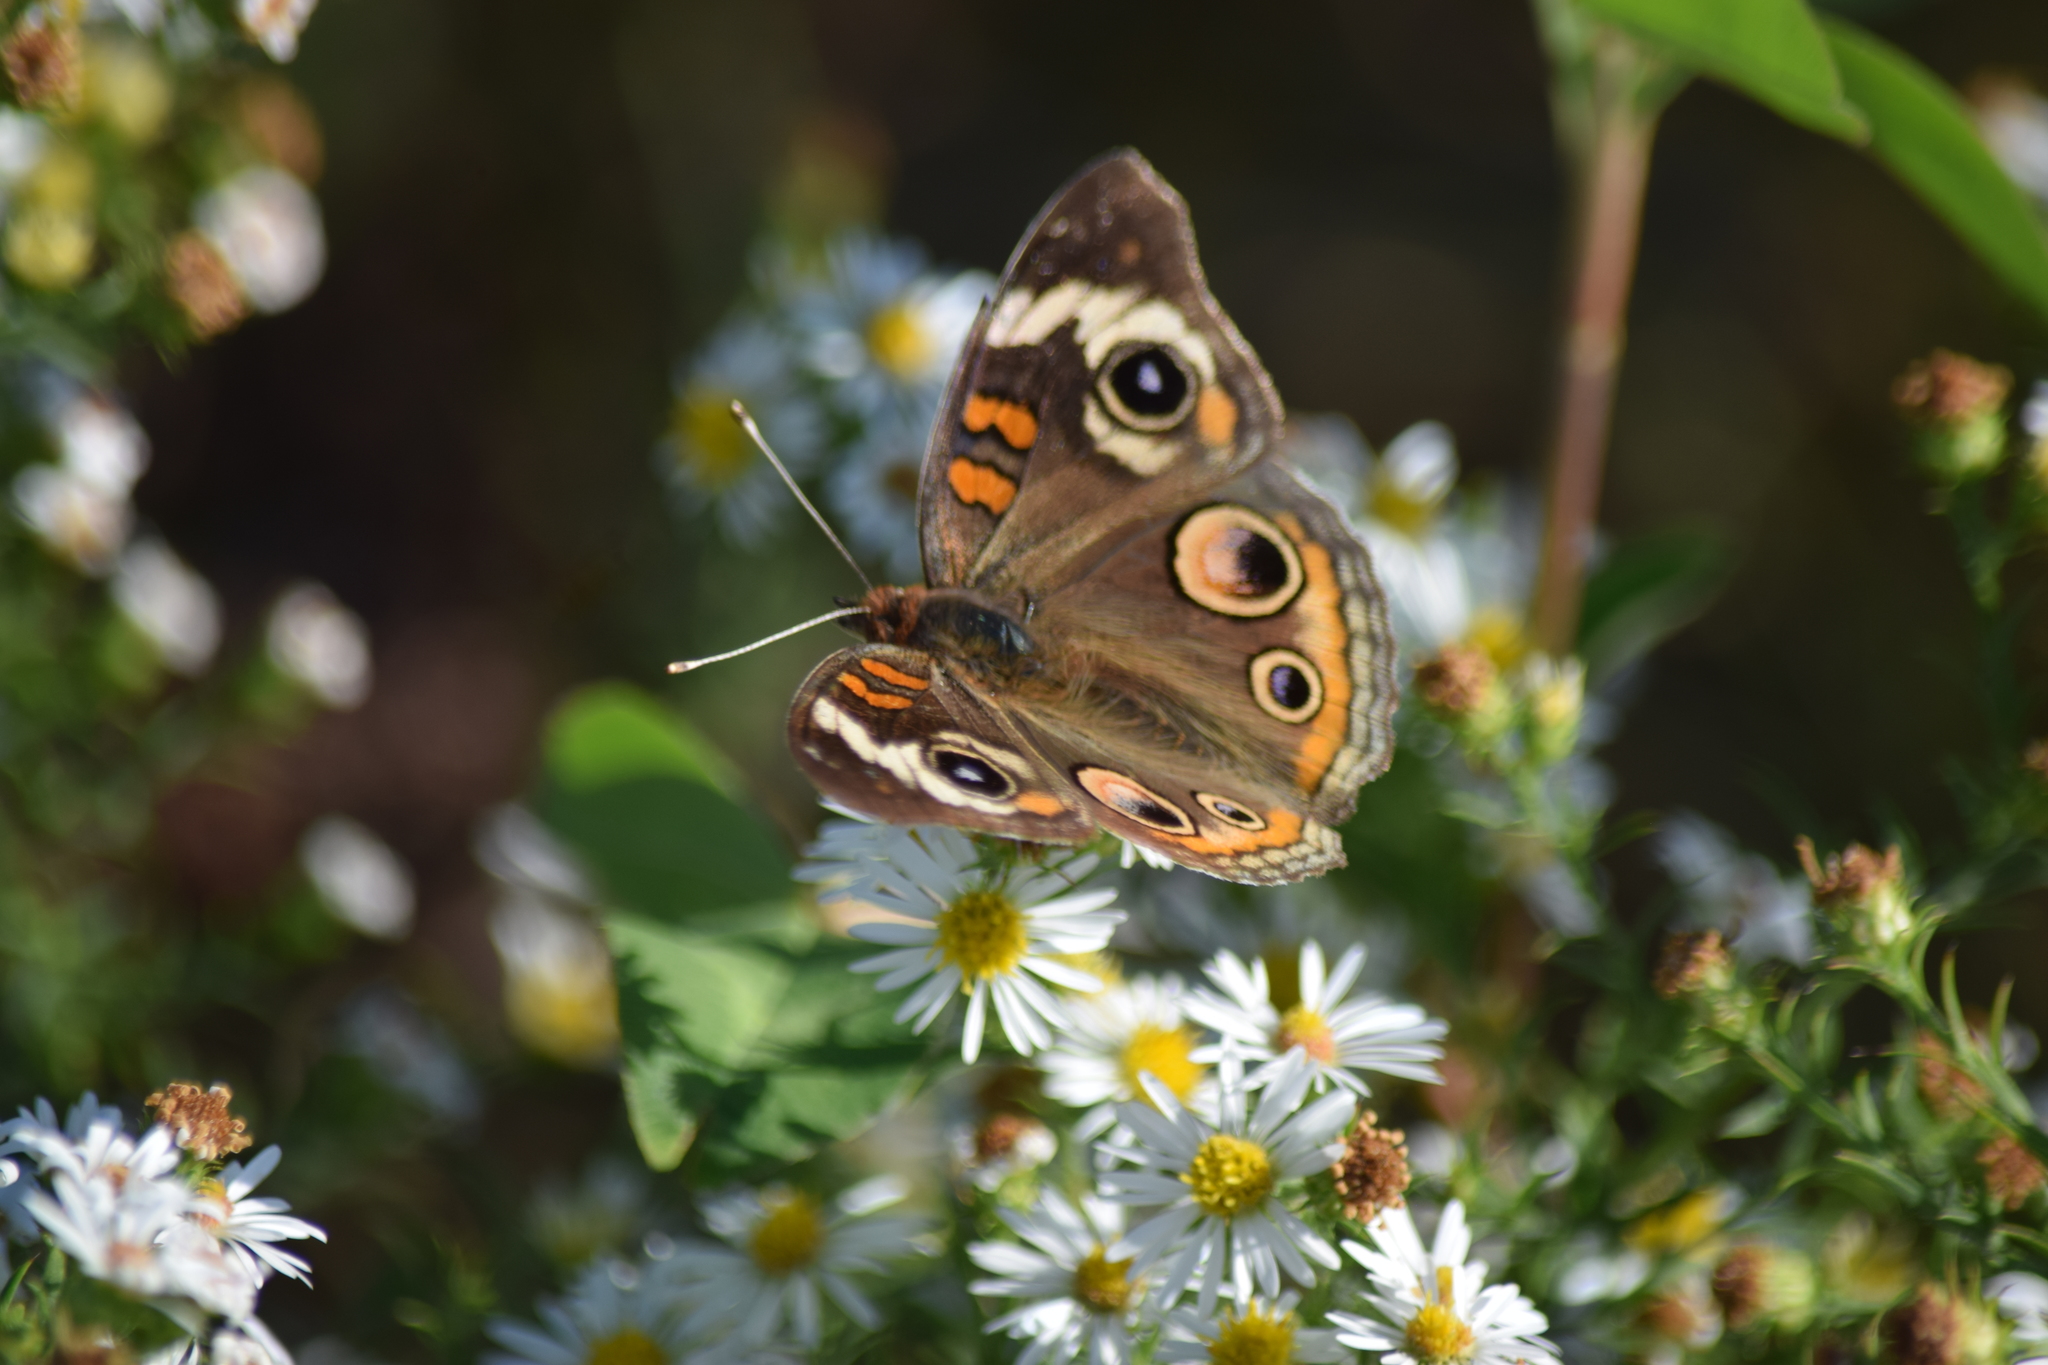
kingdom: Animalia
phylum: Arthropoda
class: Insecta
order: Lepidoptera
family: Nymphalidae
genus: Junonia
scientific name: Junonia coenia
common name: Common buckeye
